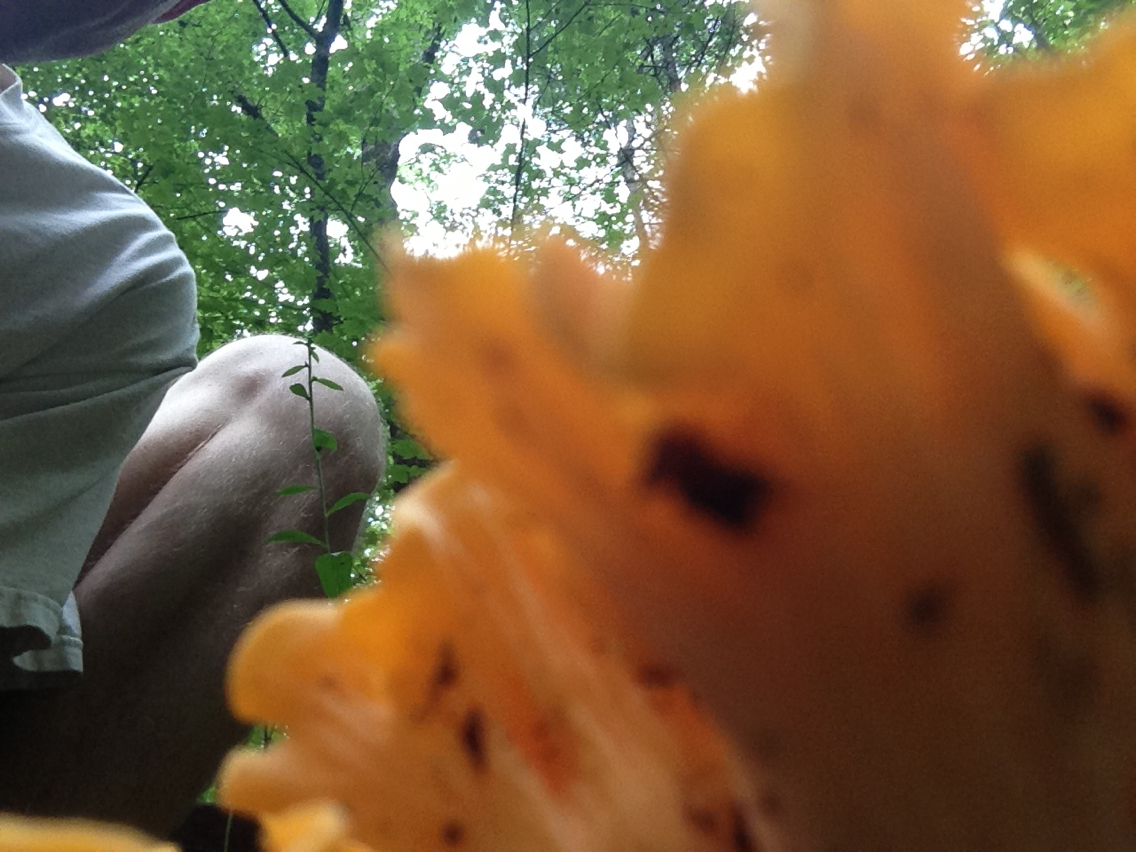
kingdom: Fungi
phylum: Basidiomycota
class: Agaricomycetes
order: Cantharellales
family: Hydnaceae
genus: Cantharellus
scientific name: Cantharellus lateritius
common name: Smooth chanterelle
